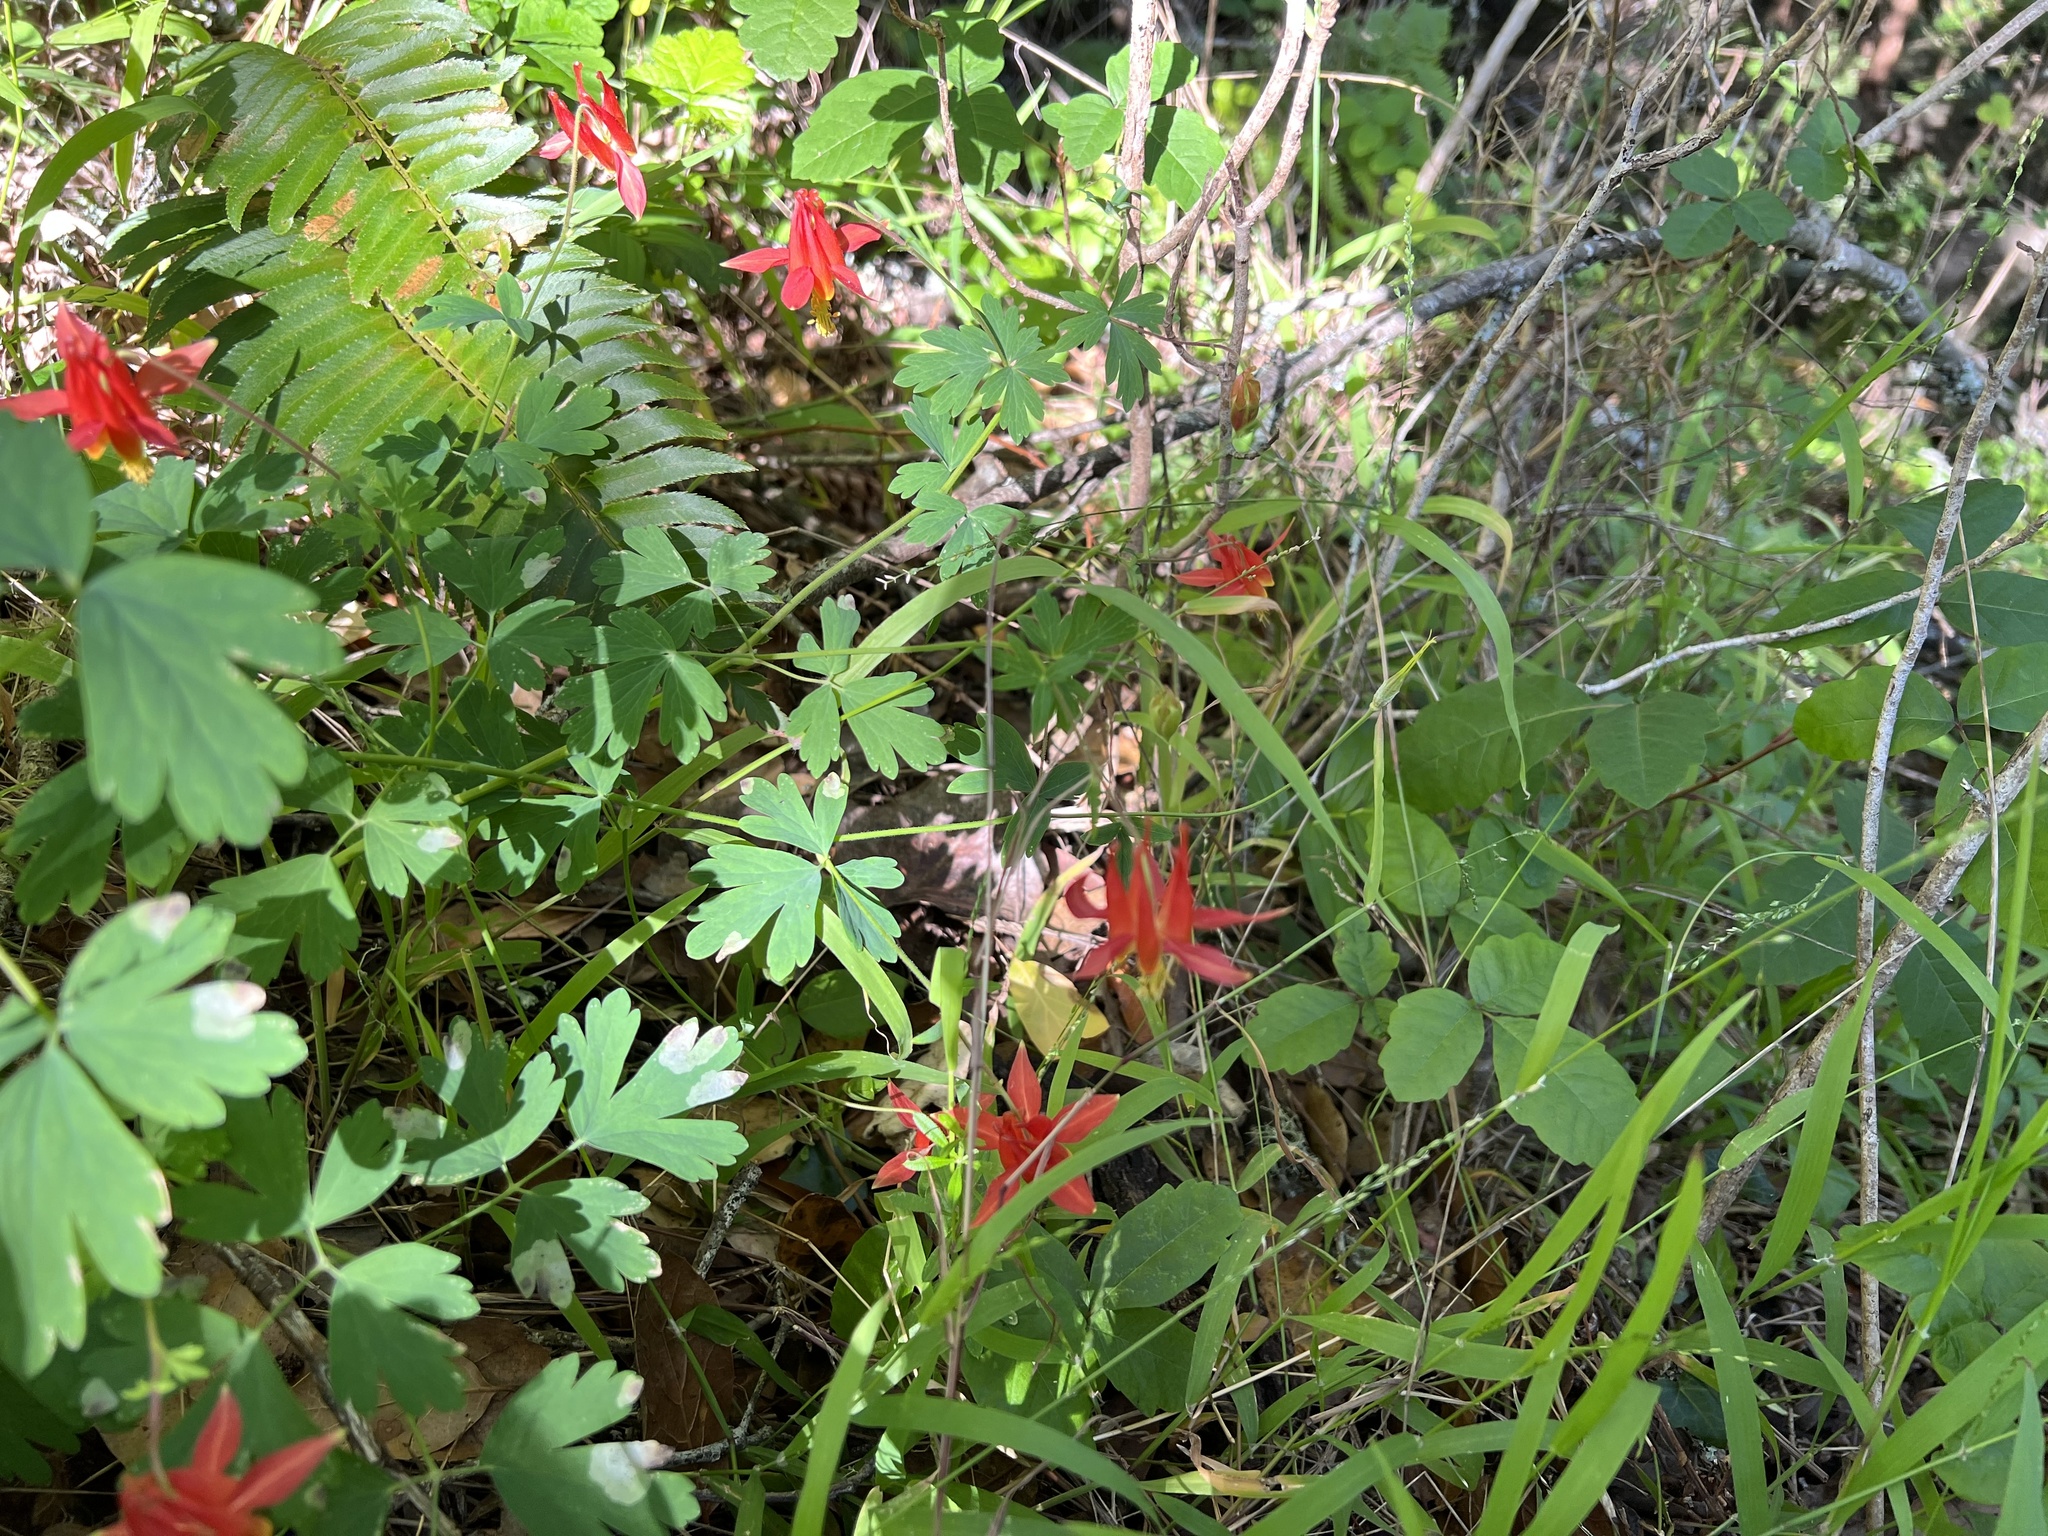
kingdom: Plantae
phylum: Tracheophyta
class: Magnoliopsida
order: Ranunculales
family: Ranunculaceae
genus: Aquilegia
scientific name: Aquilegia formosa
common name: Sitka columbine
